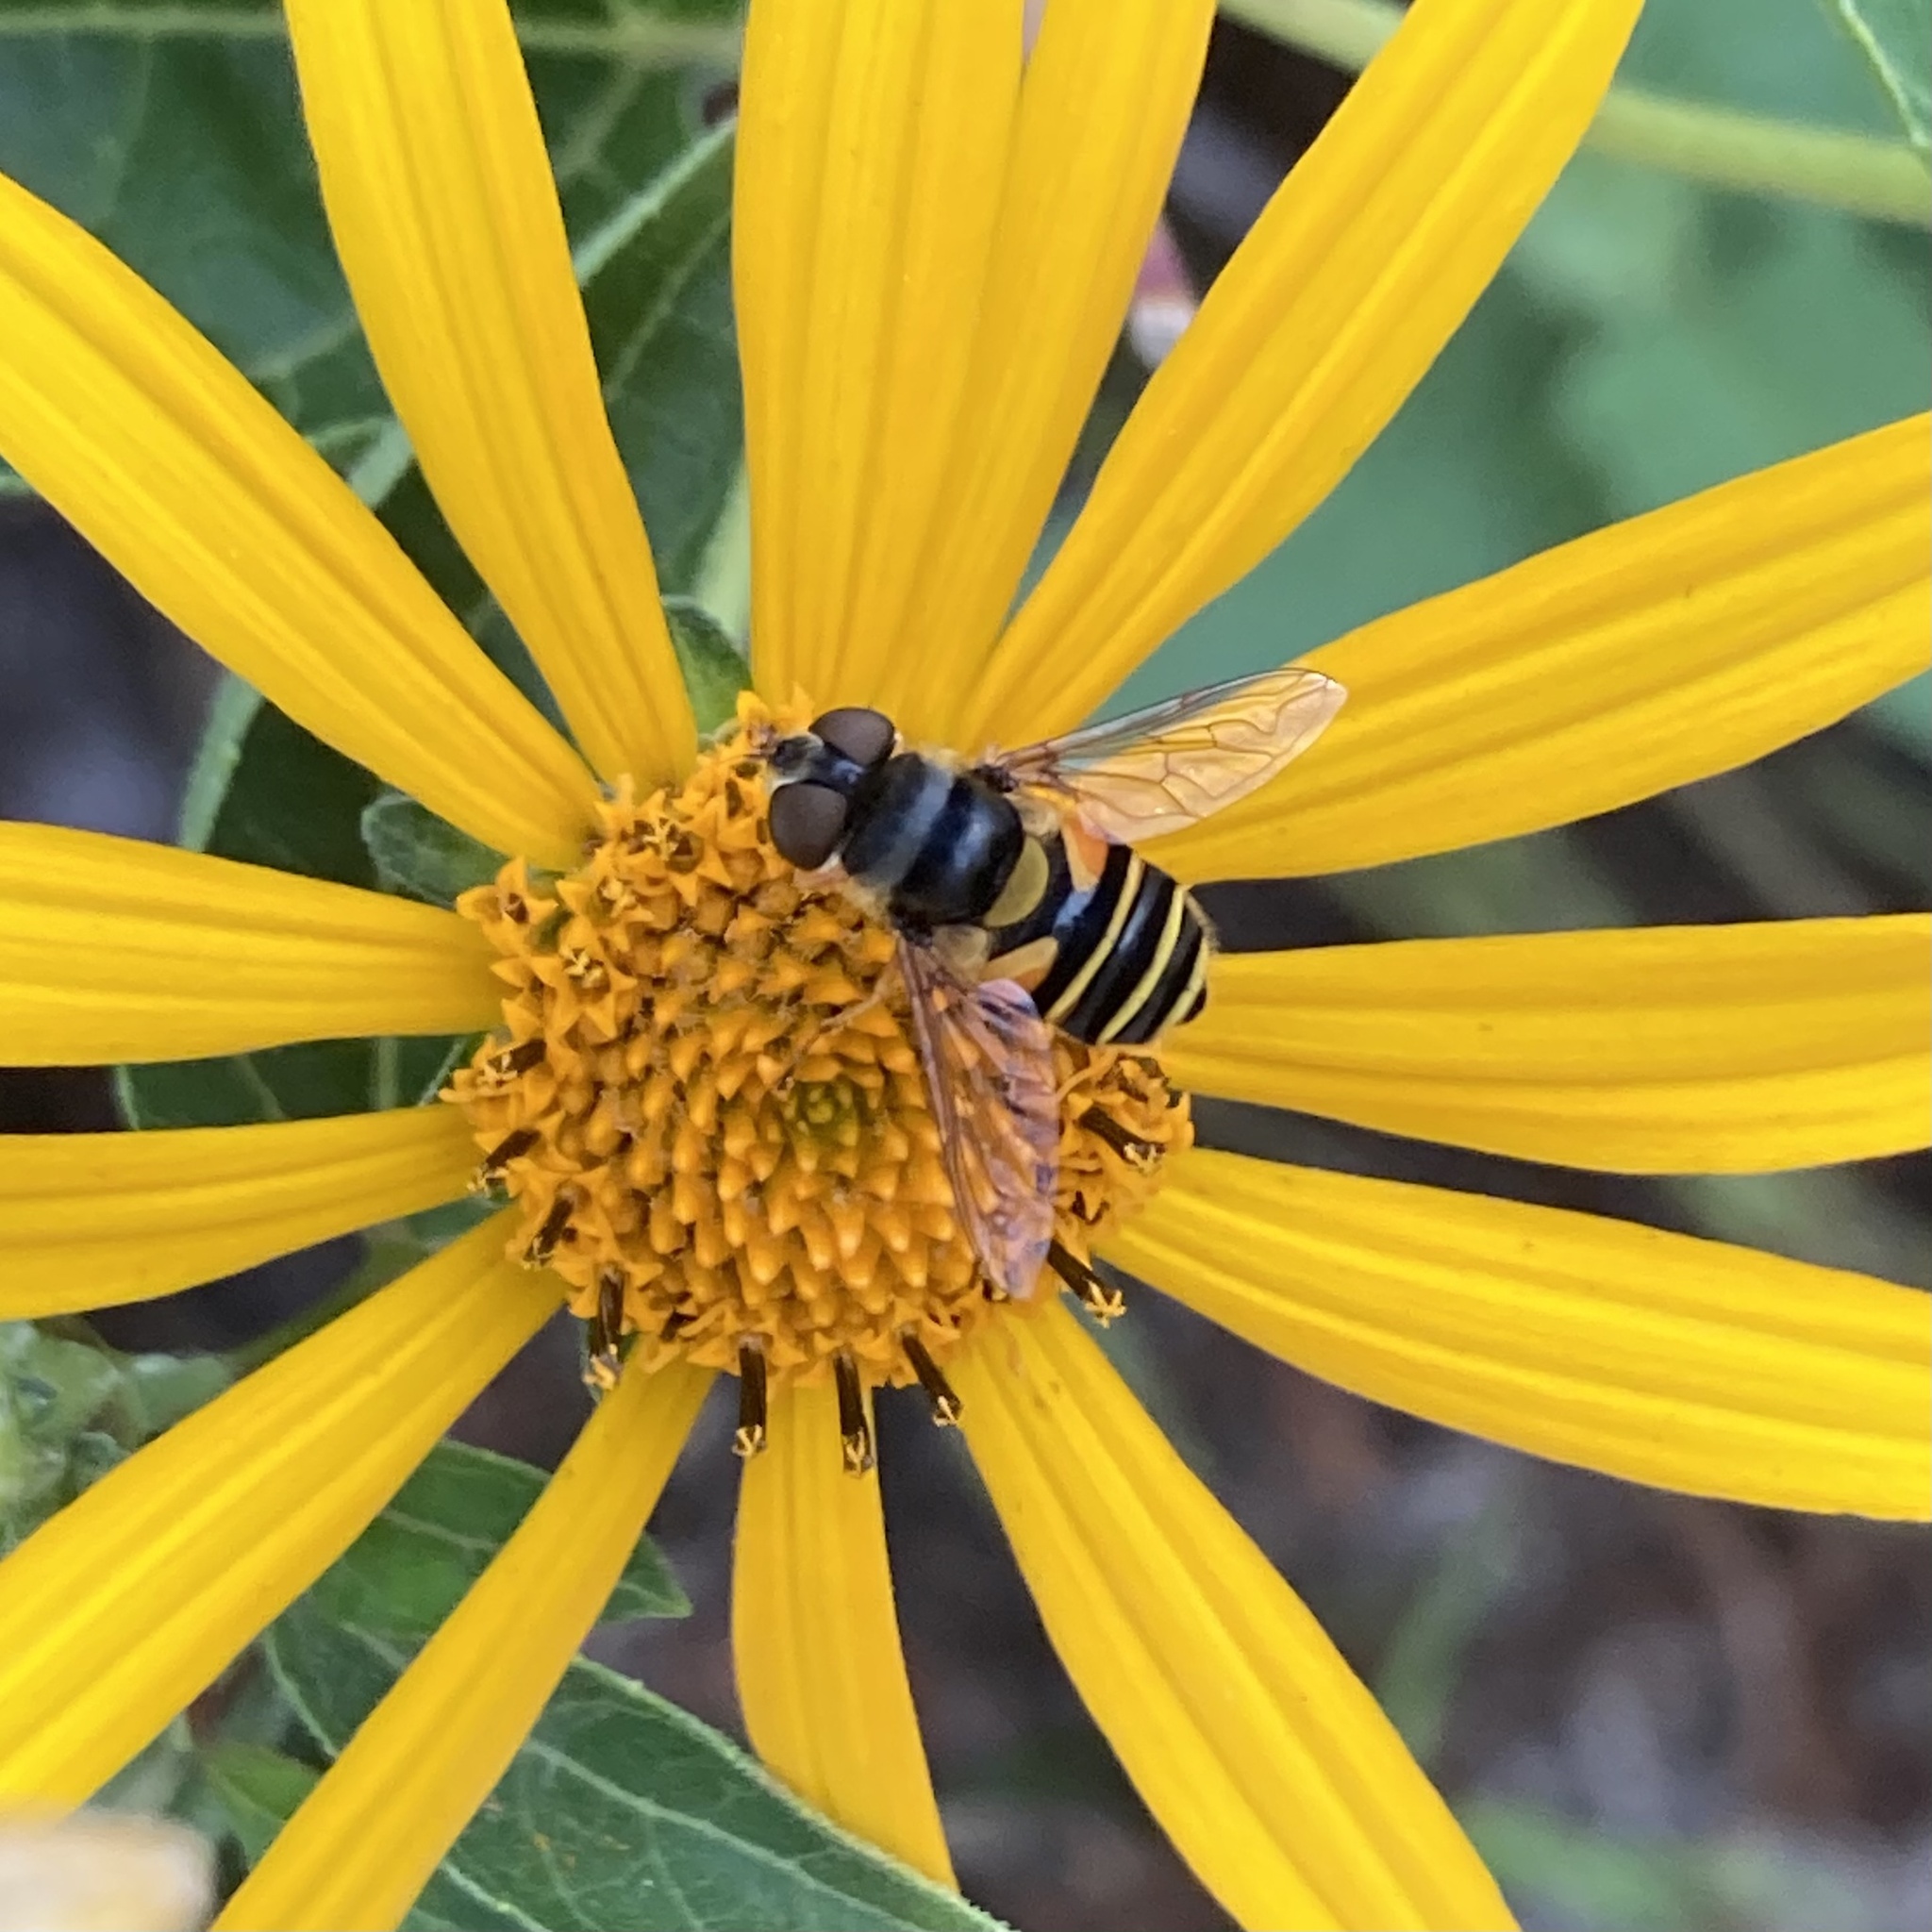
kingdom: Animalia
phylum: Arthropoda
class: Insecta
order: Diptera
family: Syrphidae
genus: Eristalis
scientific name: Eristalis transversa
